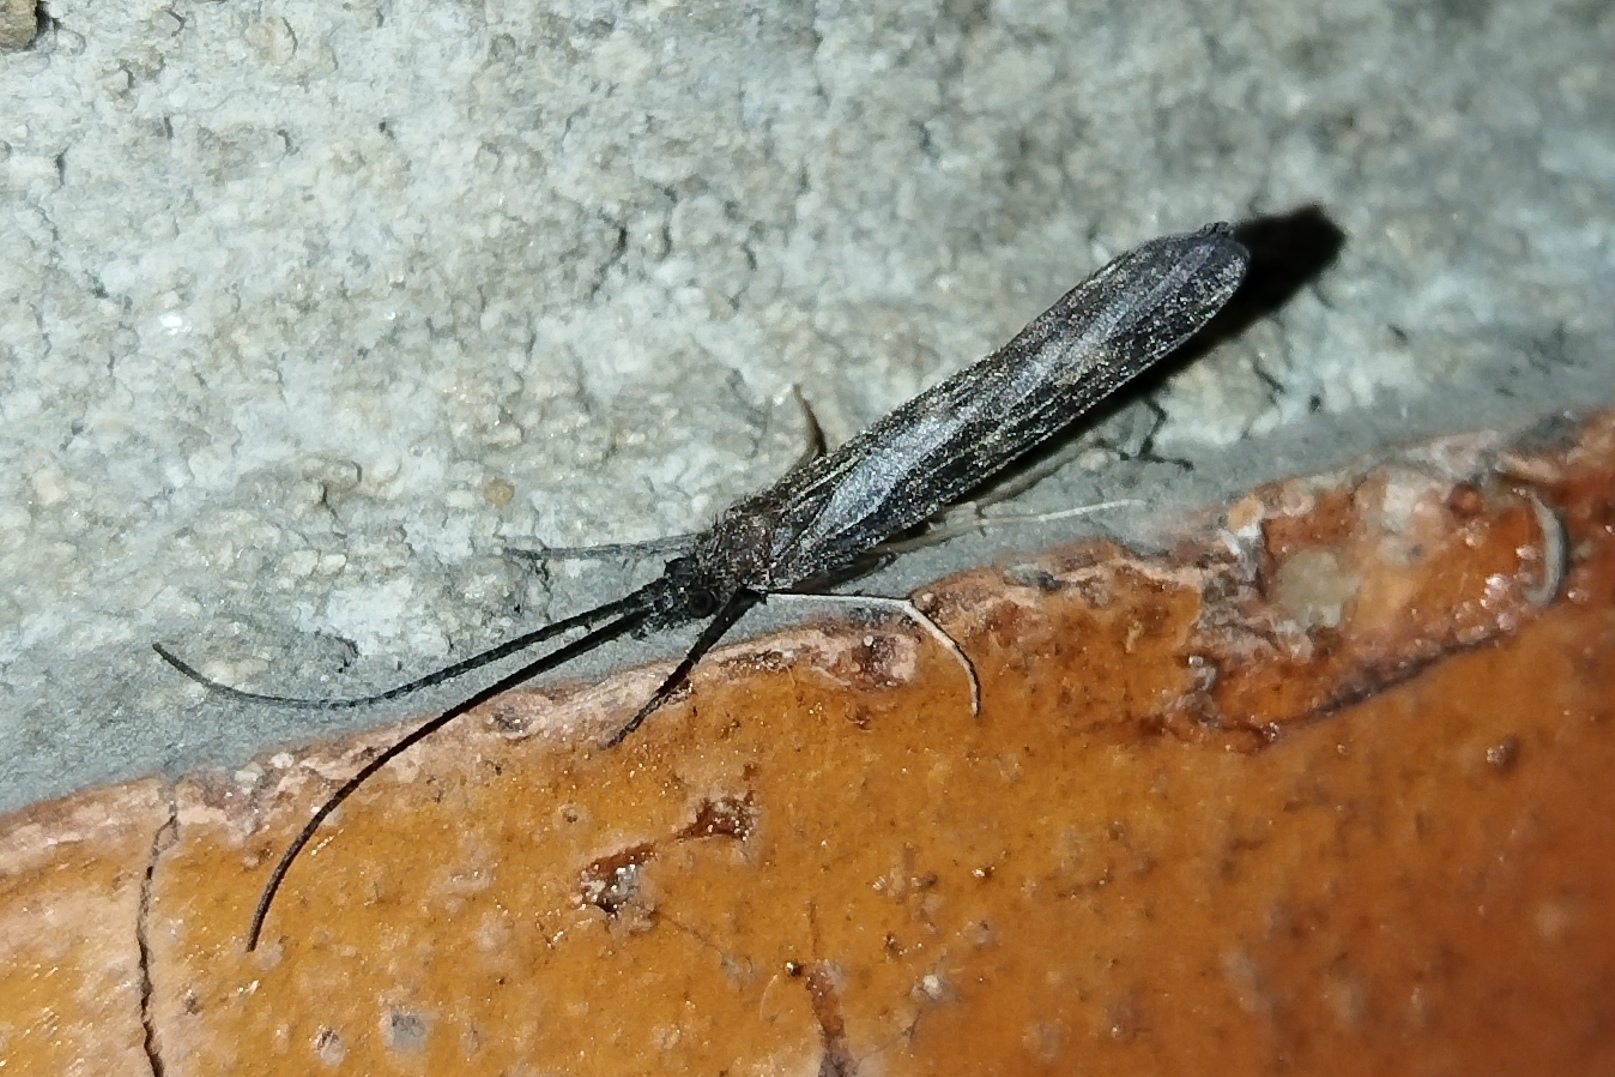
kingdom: Animalia
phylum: Arthropoda
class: Insecta
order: Trichoptera
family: Molannidae
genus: Molanna
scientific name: Molanna moesta
